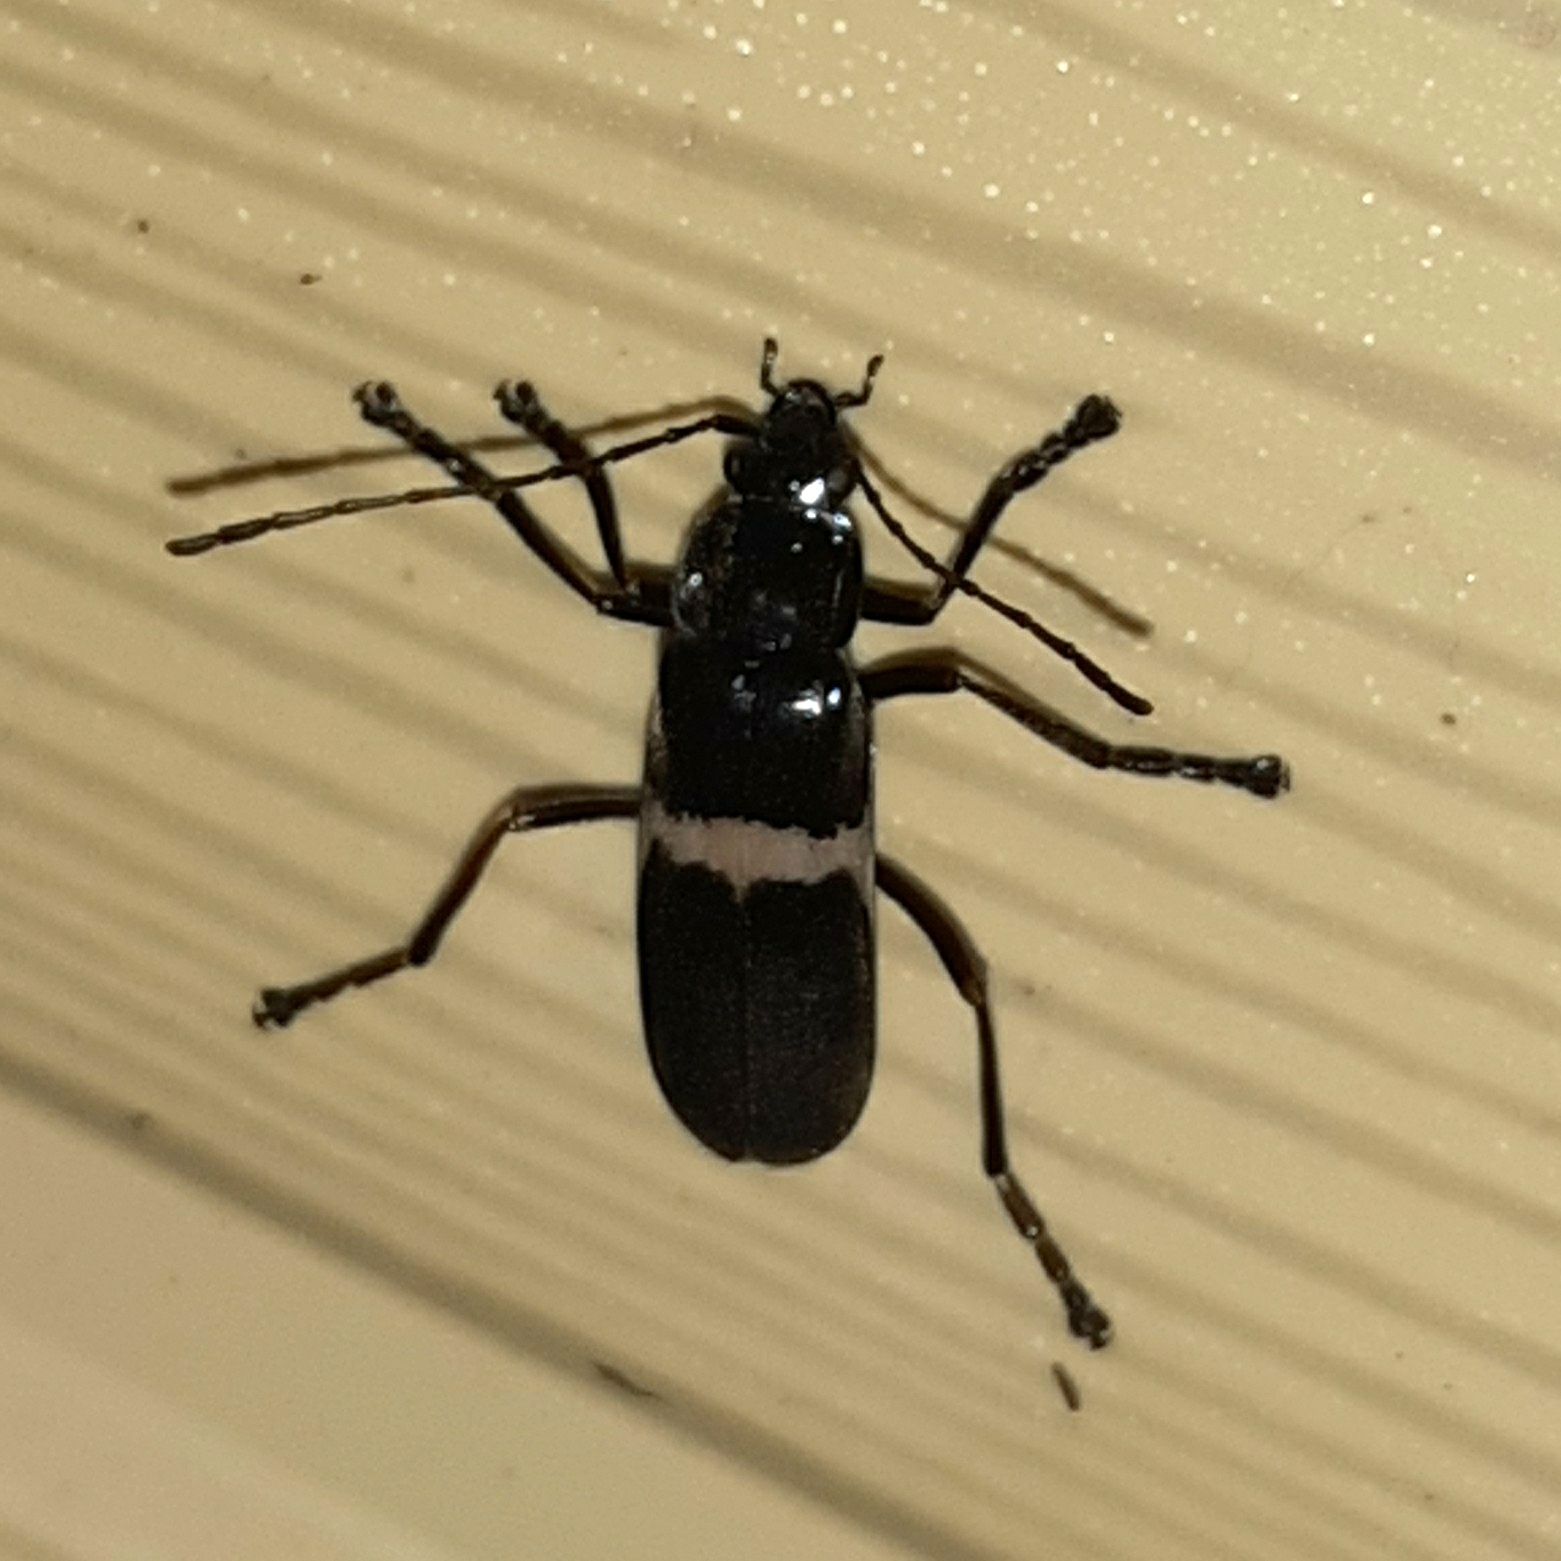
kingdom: Animalia
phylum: Arthropoda
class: Insecta
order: Coleoptera
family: Cantharidae
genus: Chauliognathus
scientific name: Chauliognathus
